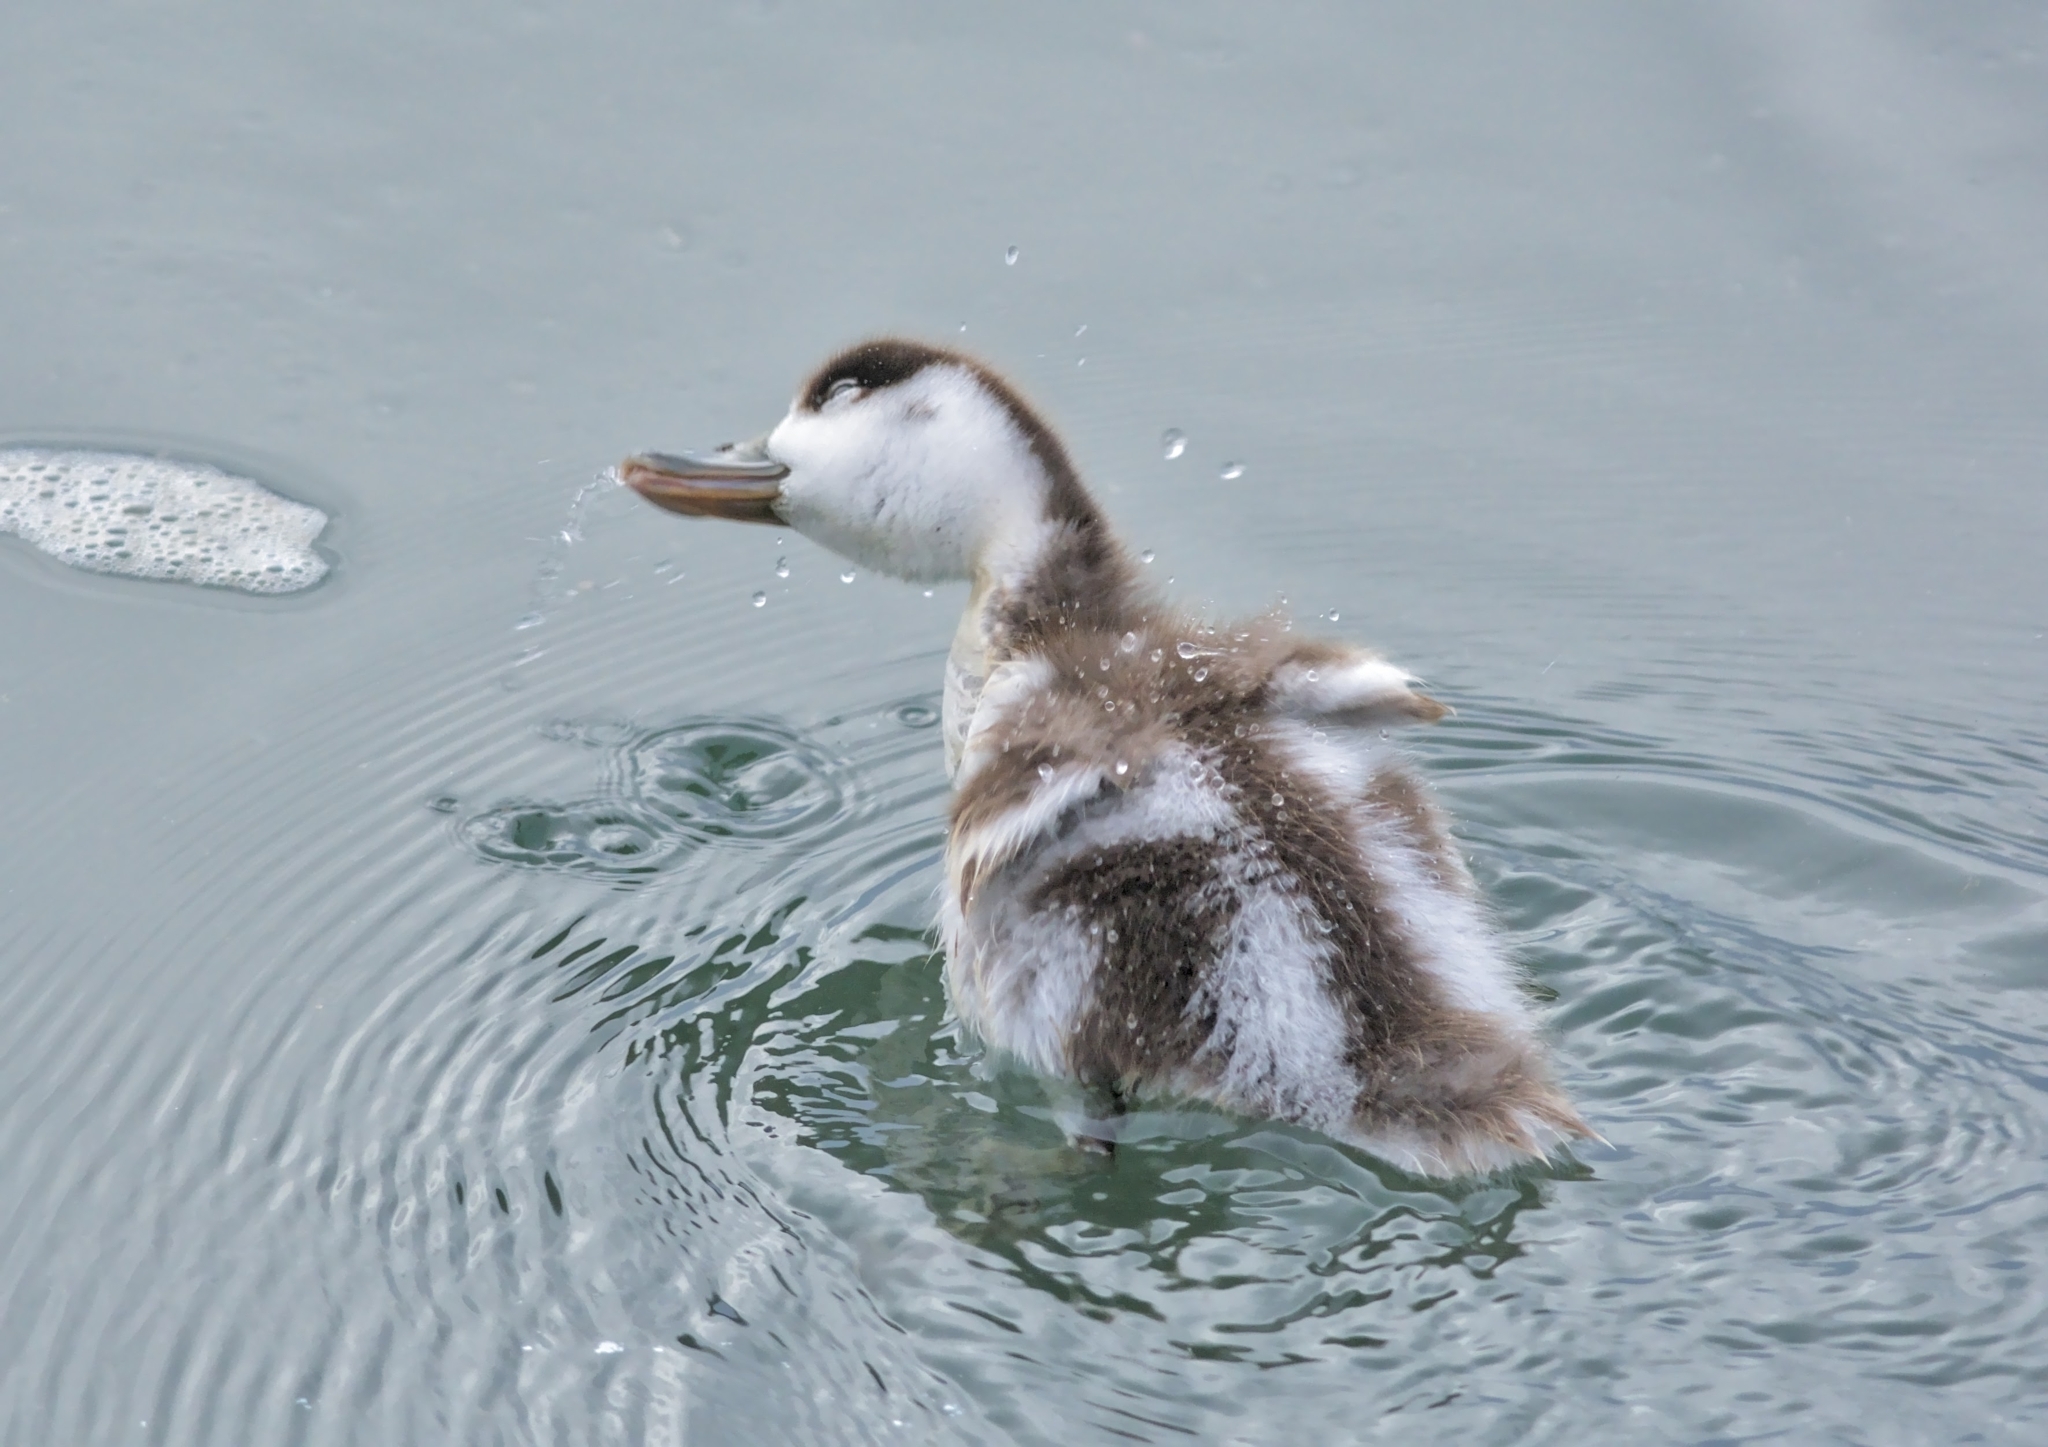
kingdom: Animalia
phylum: Chordata
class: Aves
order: Anseriformes
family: Anatidae
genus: Tadorna
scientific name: Tadorna tadorna
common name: Common shelduck
